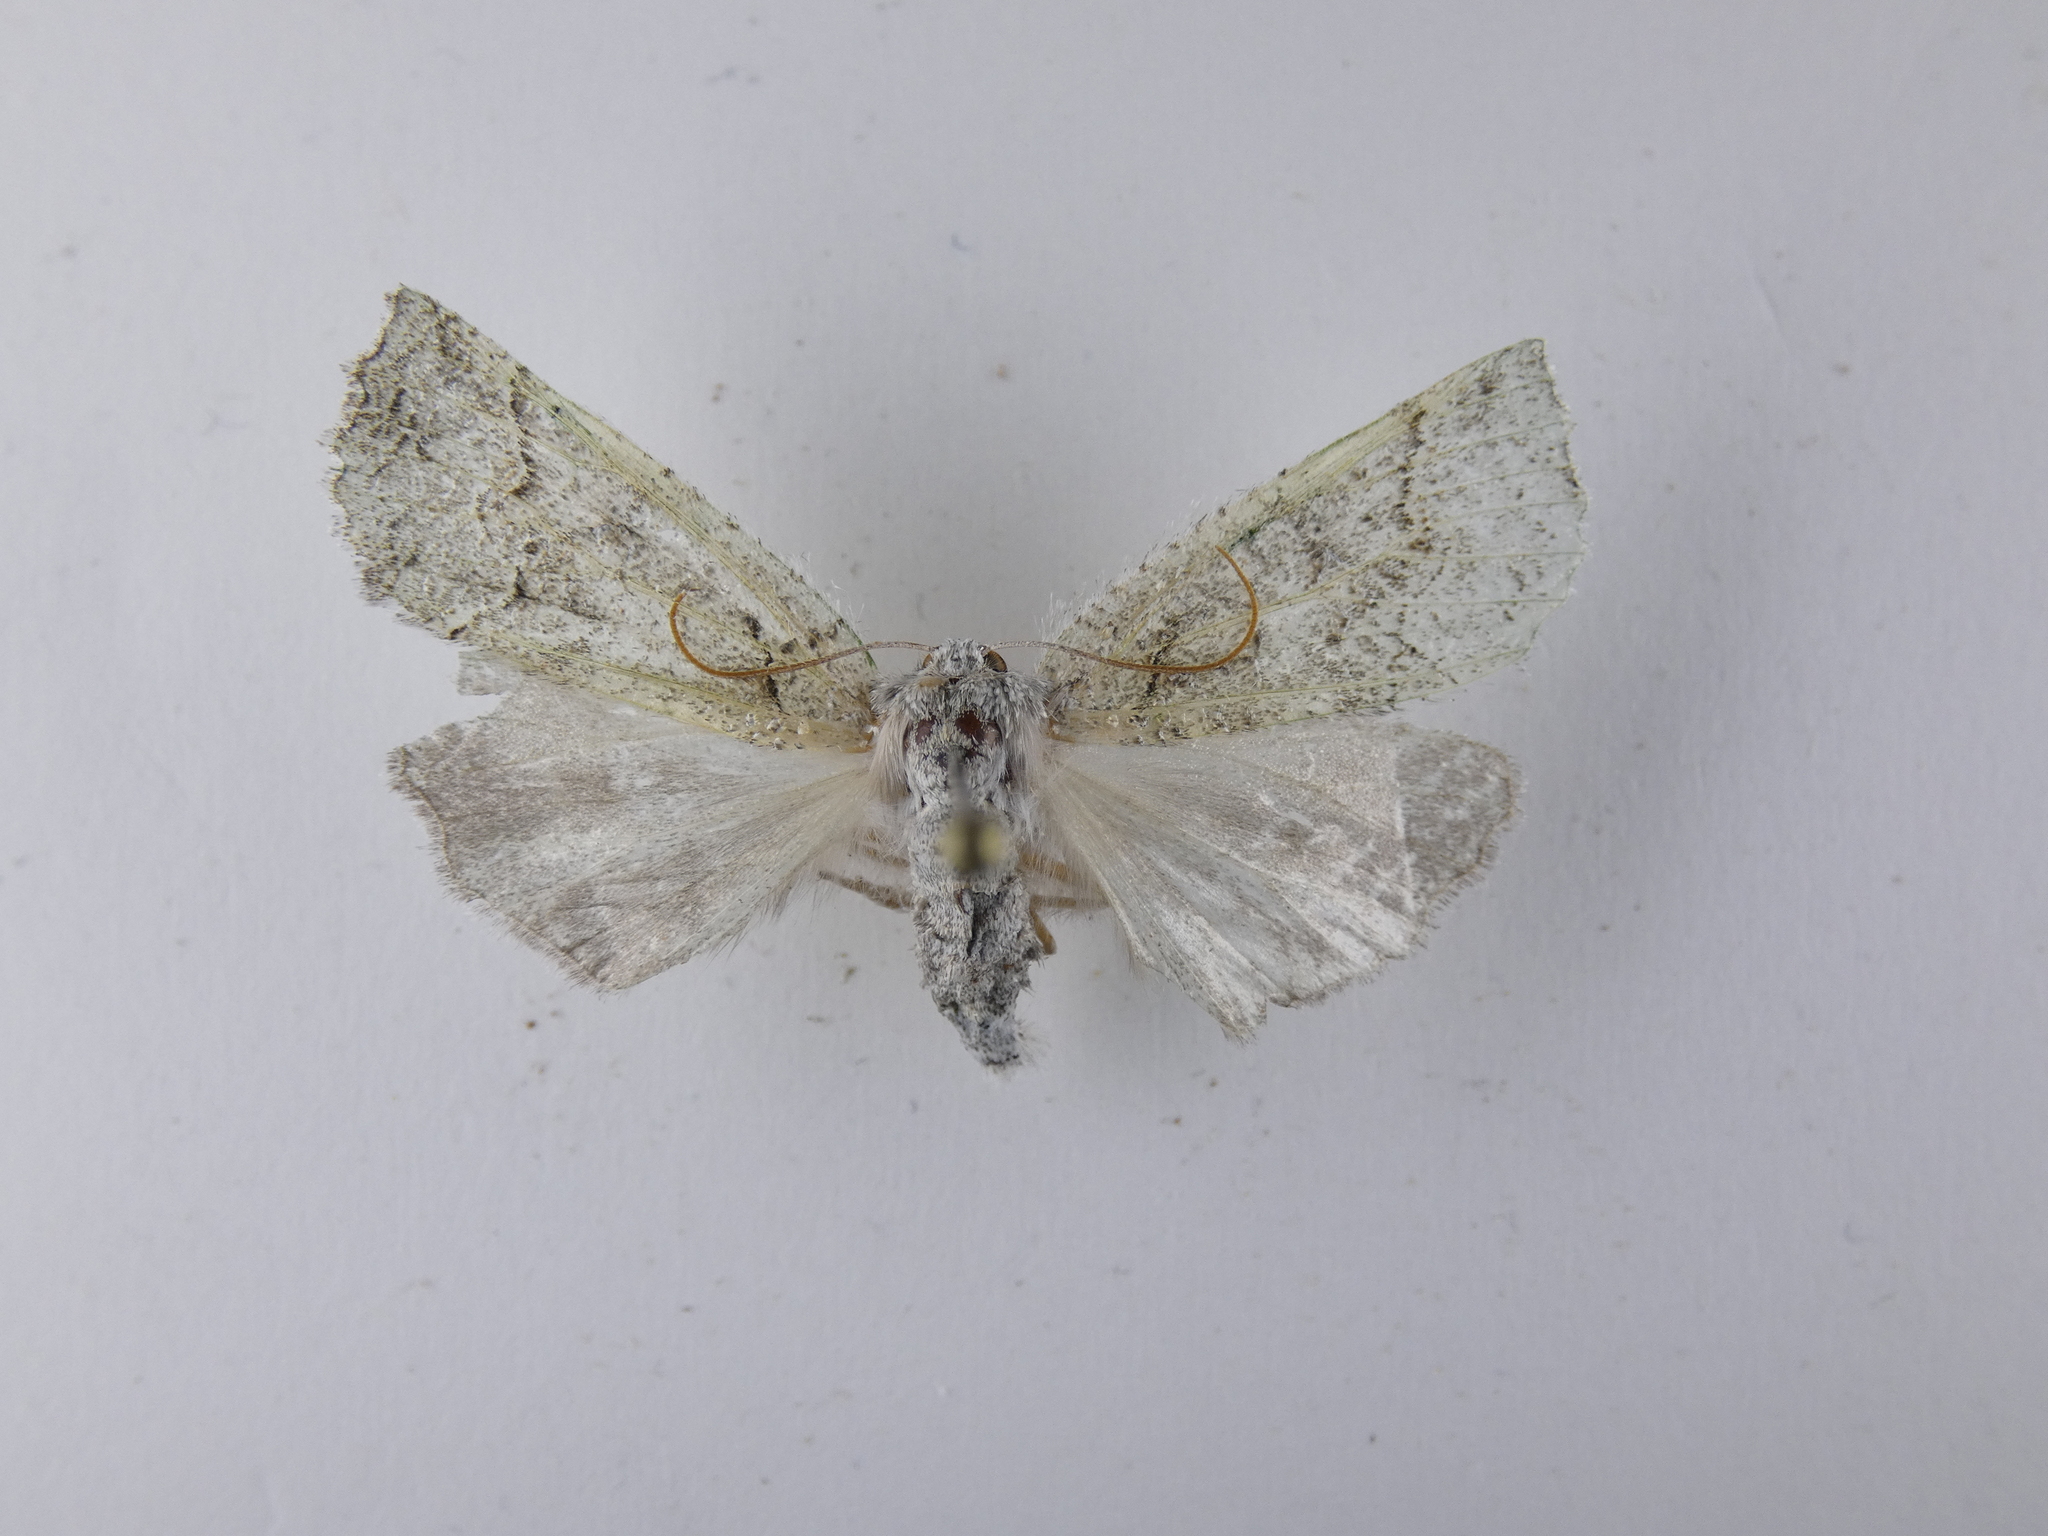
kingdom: Animalia
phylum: Arthropoda
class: Insecta
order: Lepidoptera
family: Geometridae
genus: Declana
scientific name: Declana floccosa
